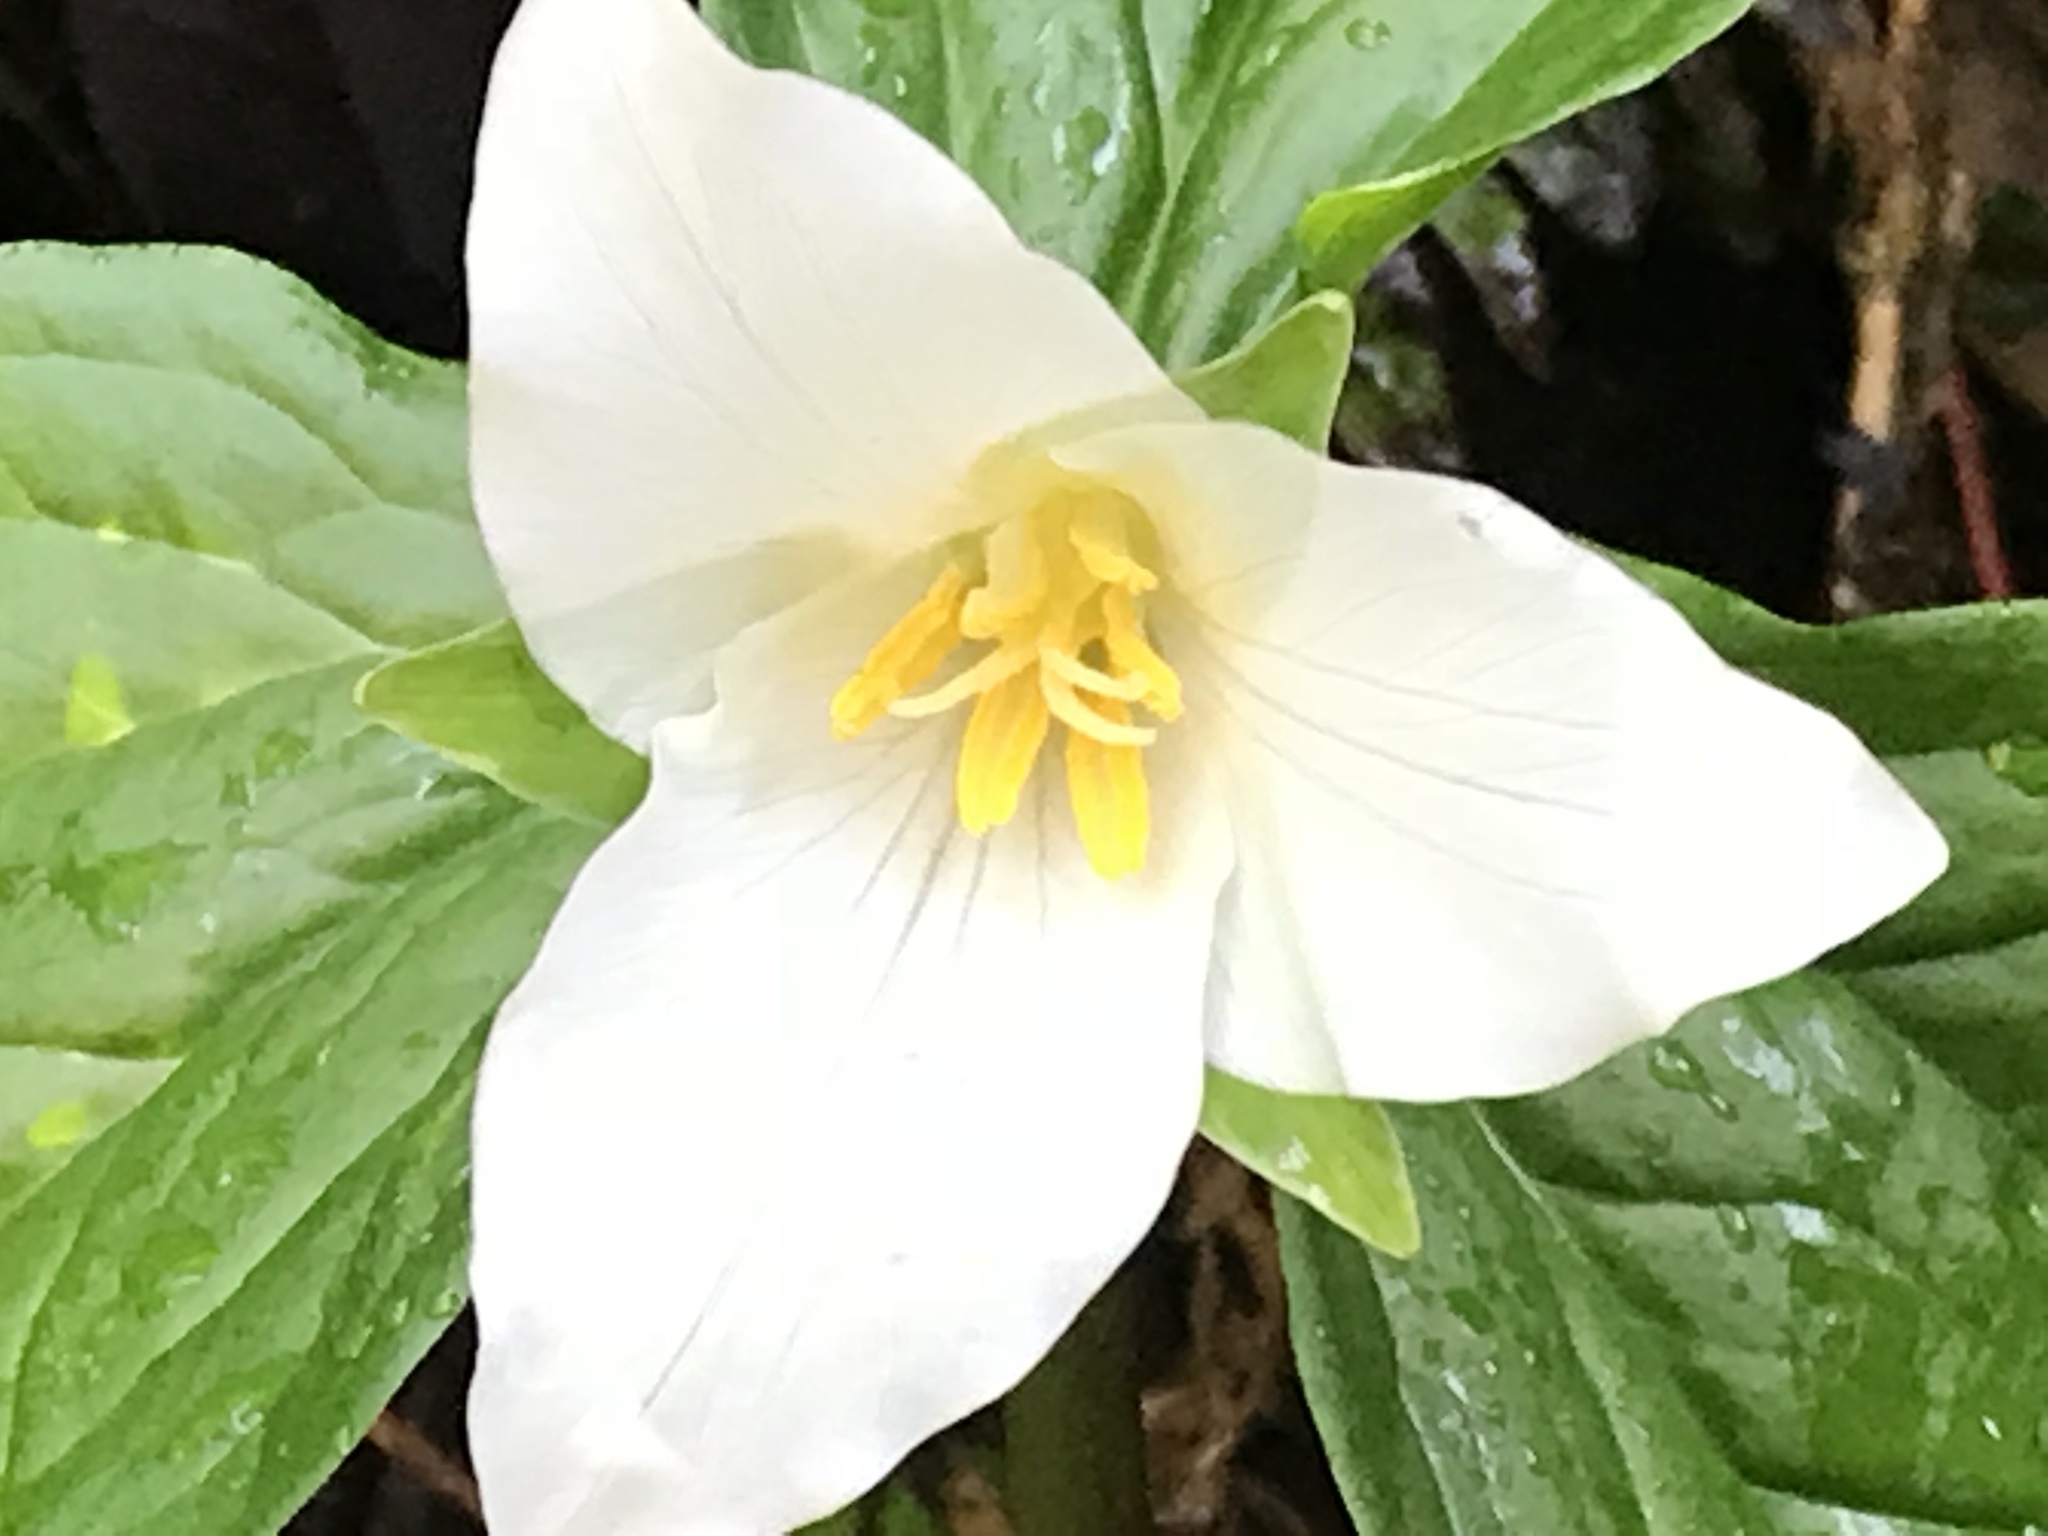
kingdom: Plantae
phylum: Tracheophyta
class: Liliopsida
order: Liliales
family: Melanthiaceae
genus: Trillium
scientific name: Trillium ovatum
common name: Pacific trillium
